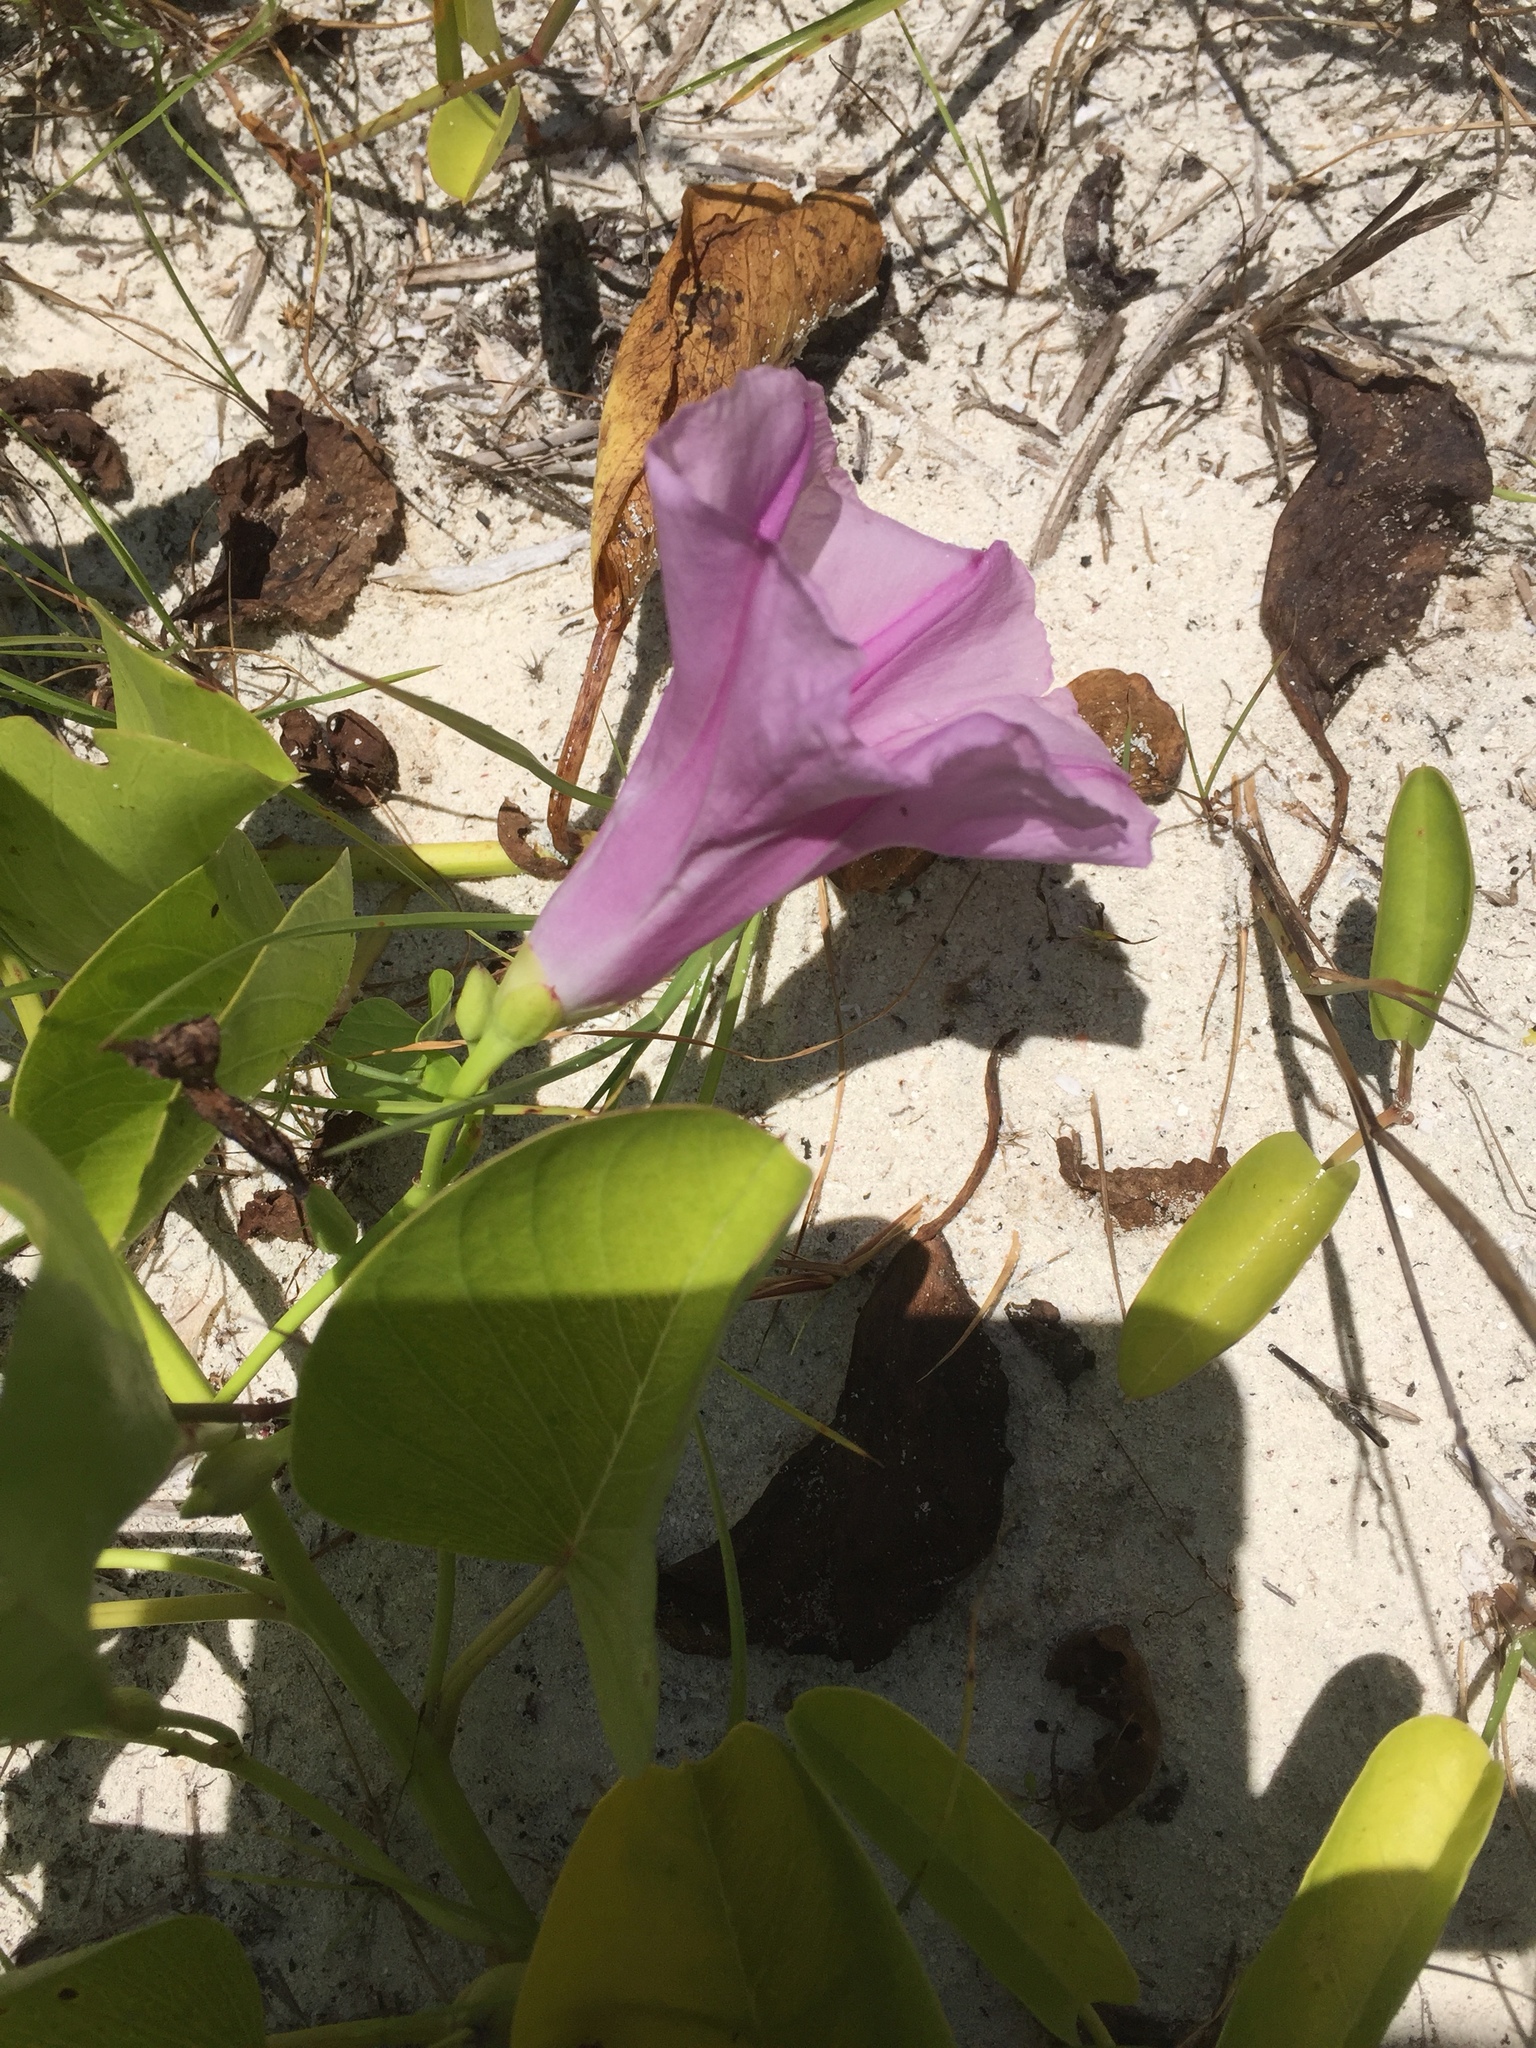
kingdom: Plantae
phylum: Tracheophyta
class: Magnoliopsida
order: Solanales
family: Convolvulaceae
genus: Ipomoea
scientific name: Ipomoea pes-caprae
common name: Beach morning glory
